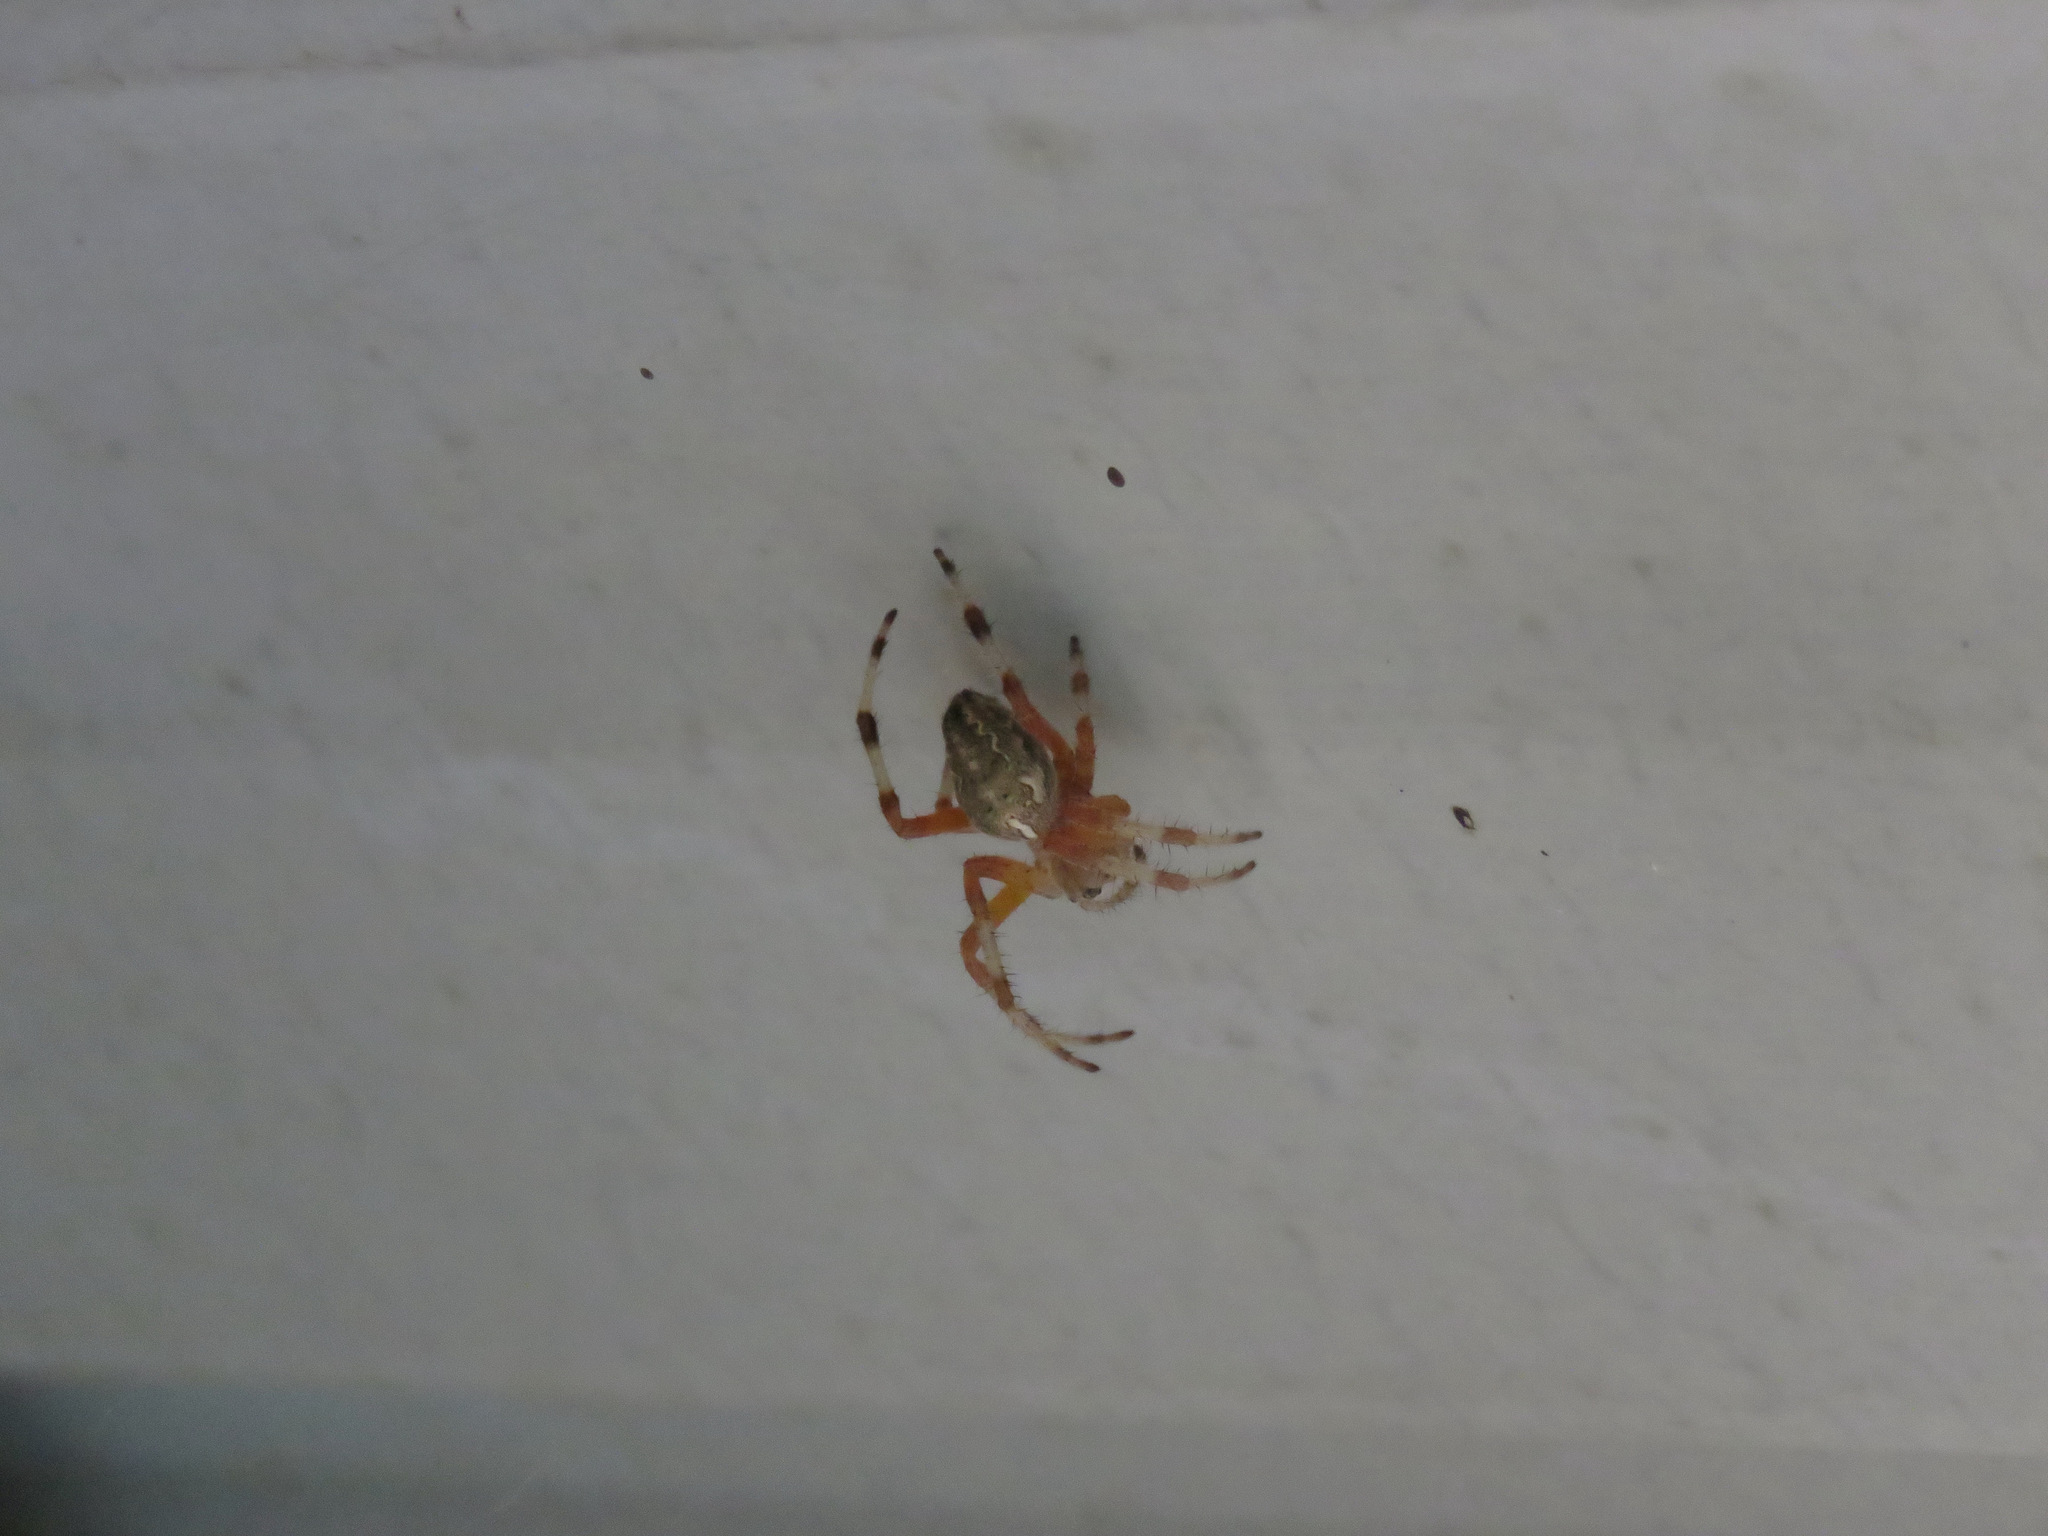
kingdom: Animalia
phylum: Arthropoda
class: Arachnida
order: Araneae
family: Araneidae
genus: Araneus
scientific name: Araneus marmoreus
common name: Marbled orbweaver
